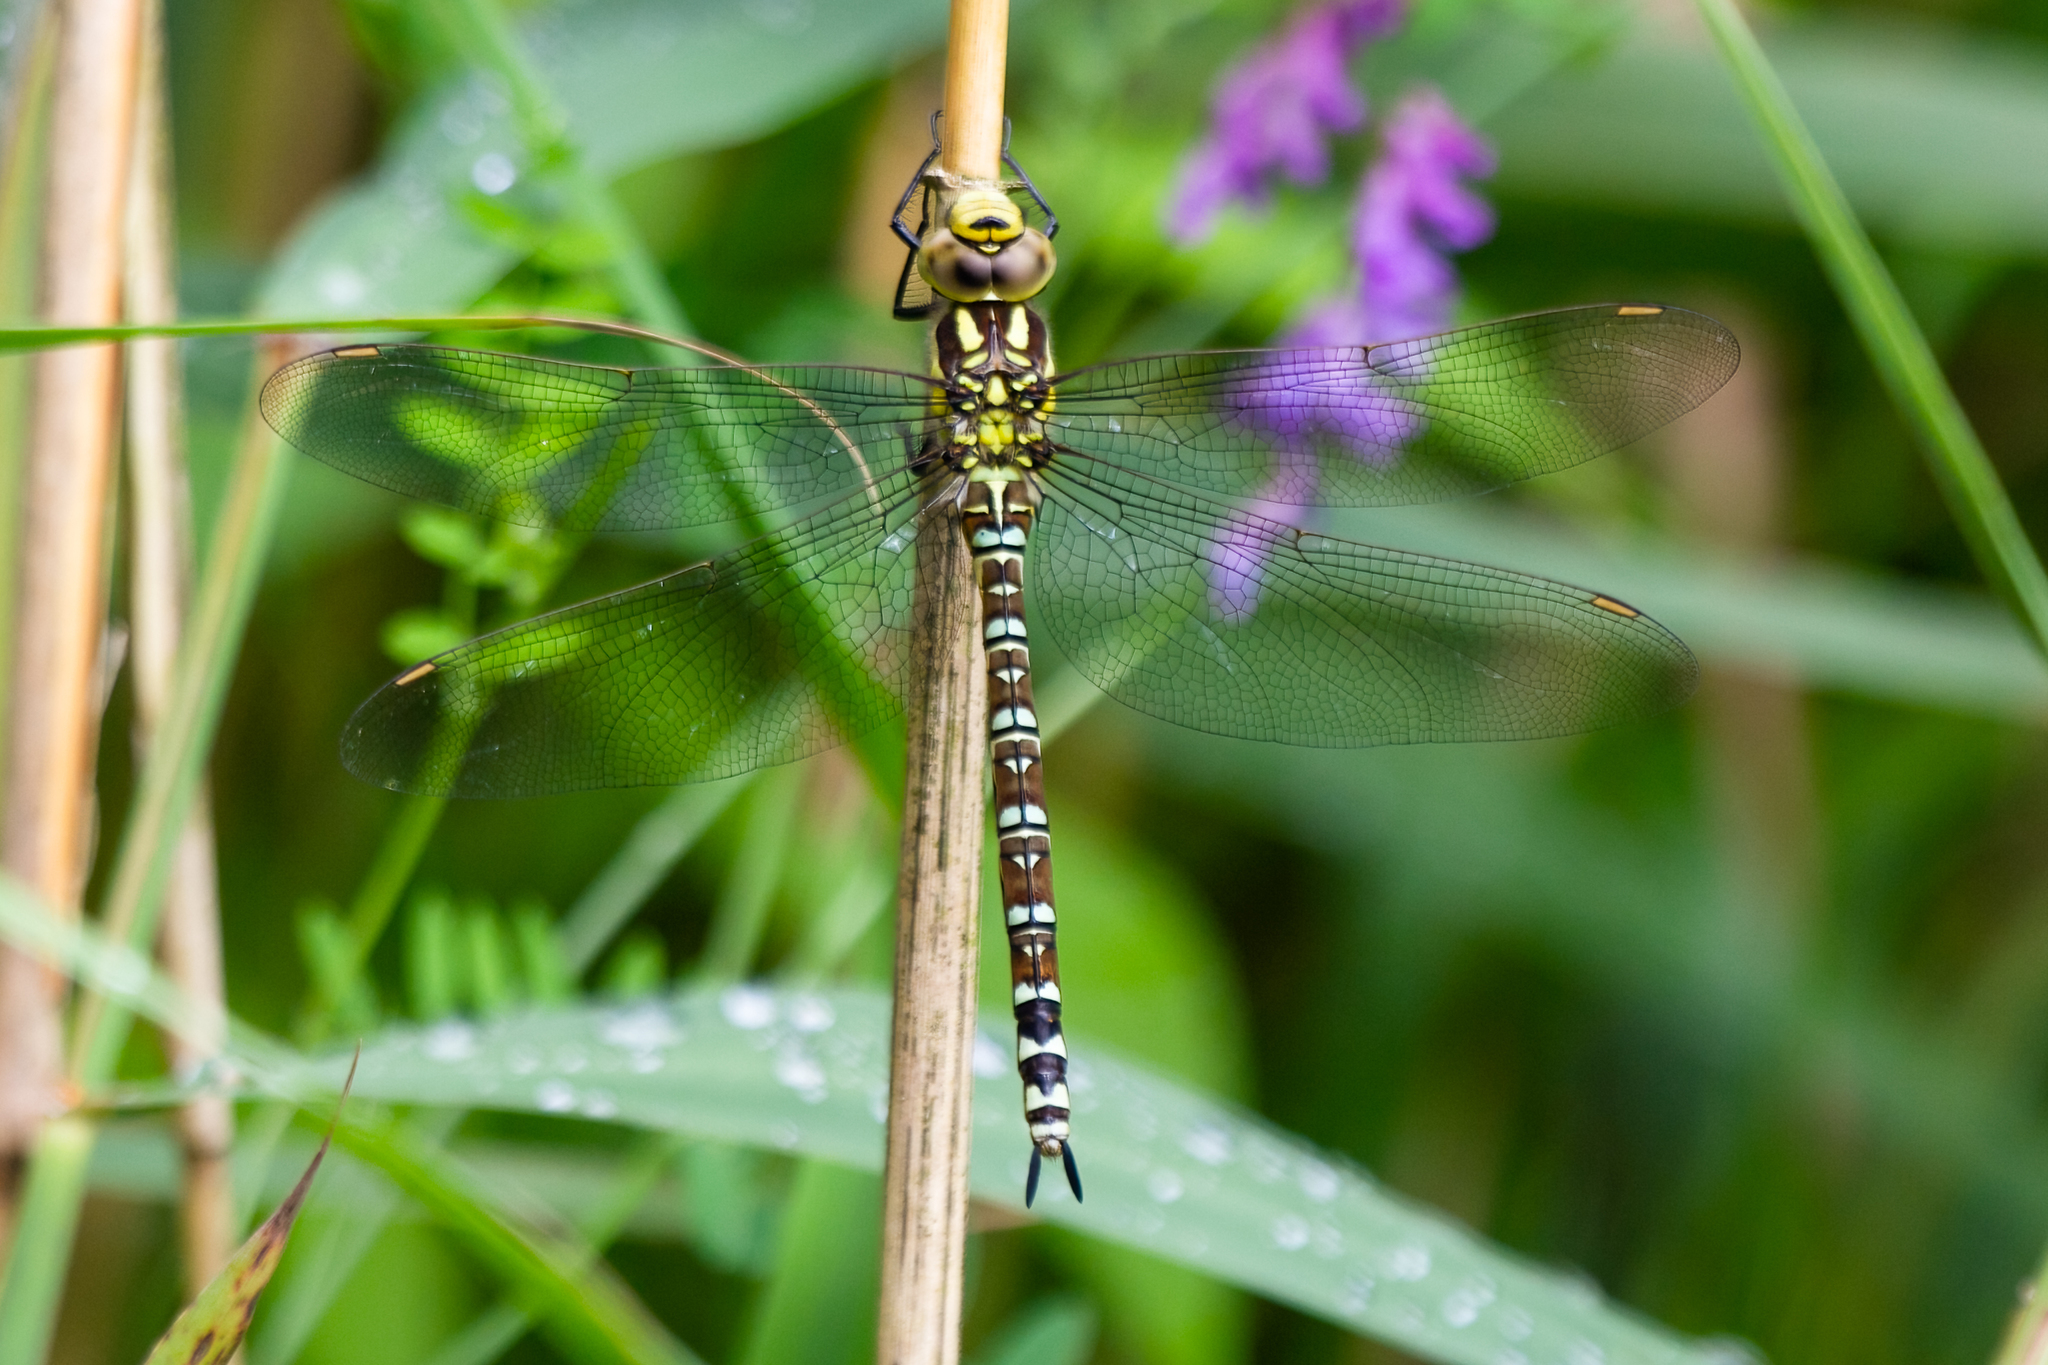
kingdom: Animalia
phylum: Arthropoda
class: Insecta
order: Odonata
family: Aeshnidae
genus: Aeshna
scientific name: Aeshna cyanea
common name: Southern hawker
